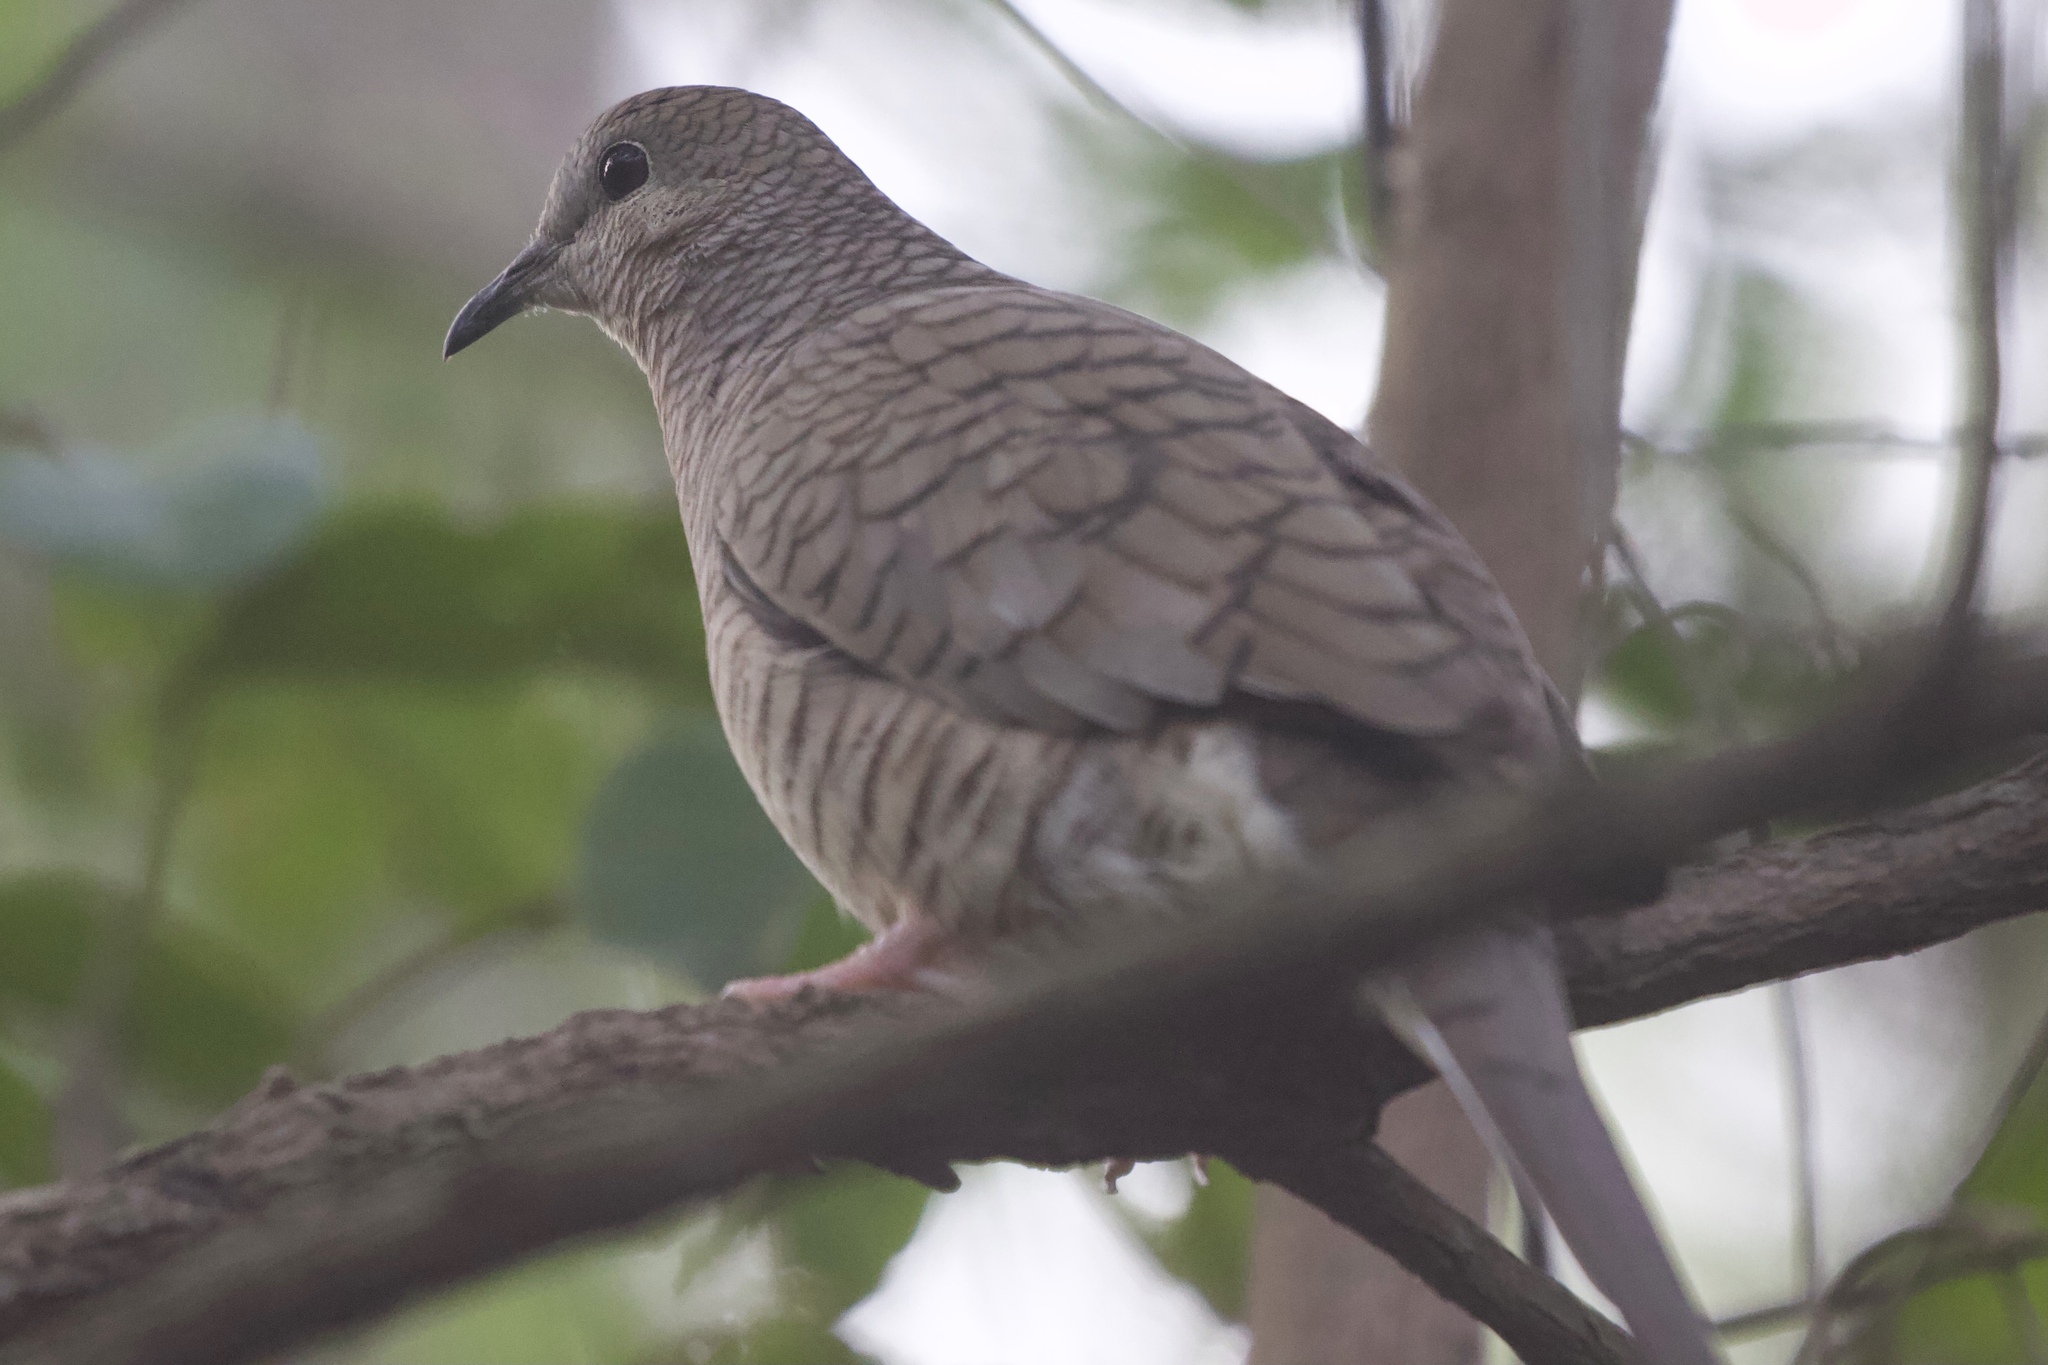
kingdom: Animalia
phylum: Chordata
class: Aves
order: Columbiformes
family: Columbidae
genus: Columbina
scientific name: Columbina inca
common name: Inca dove
